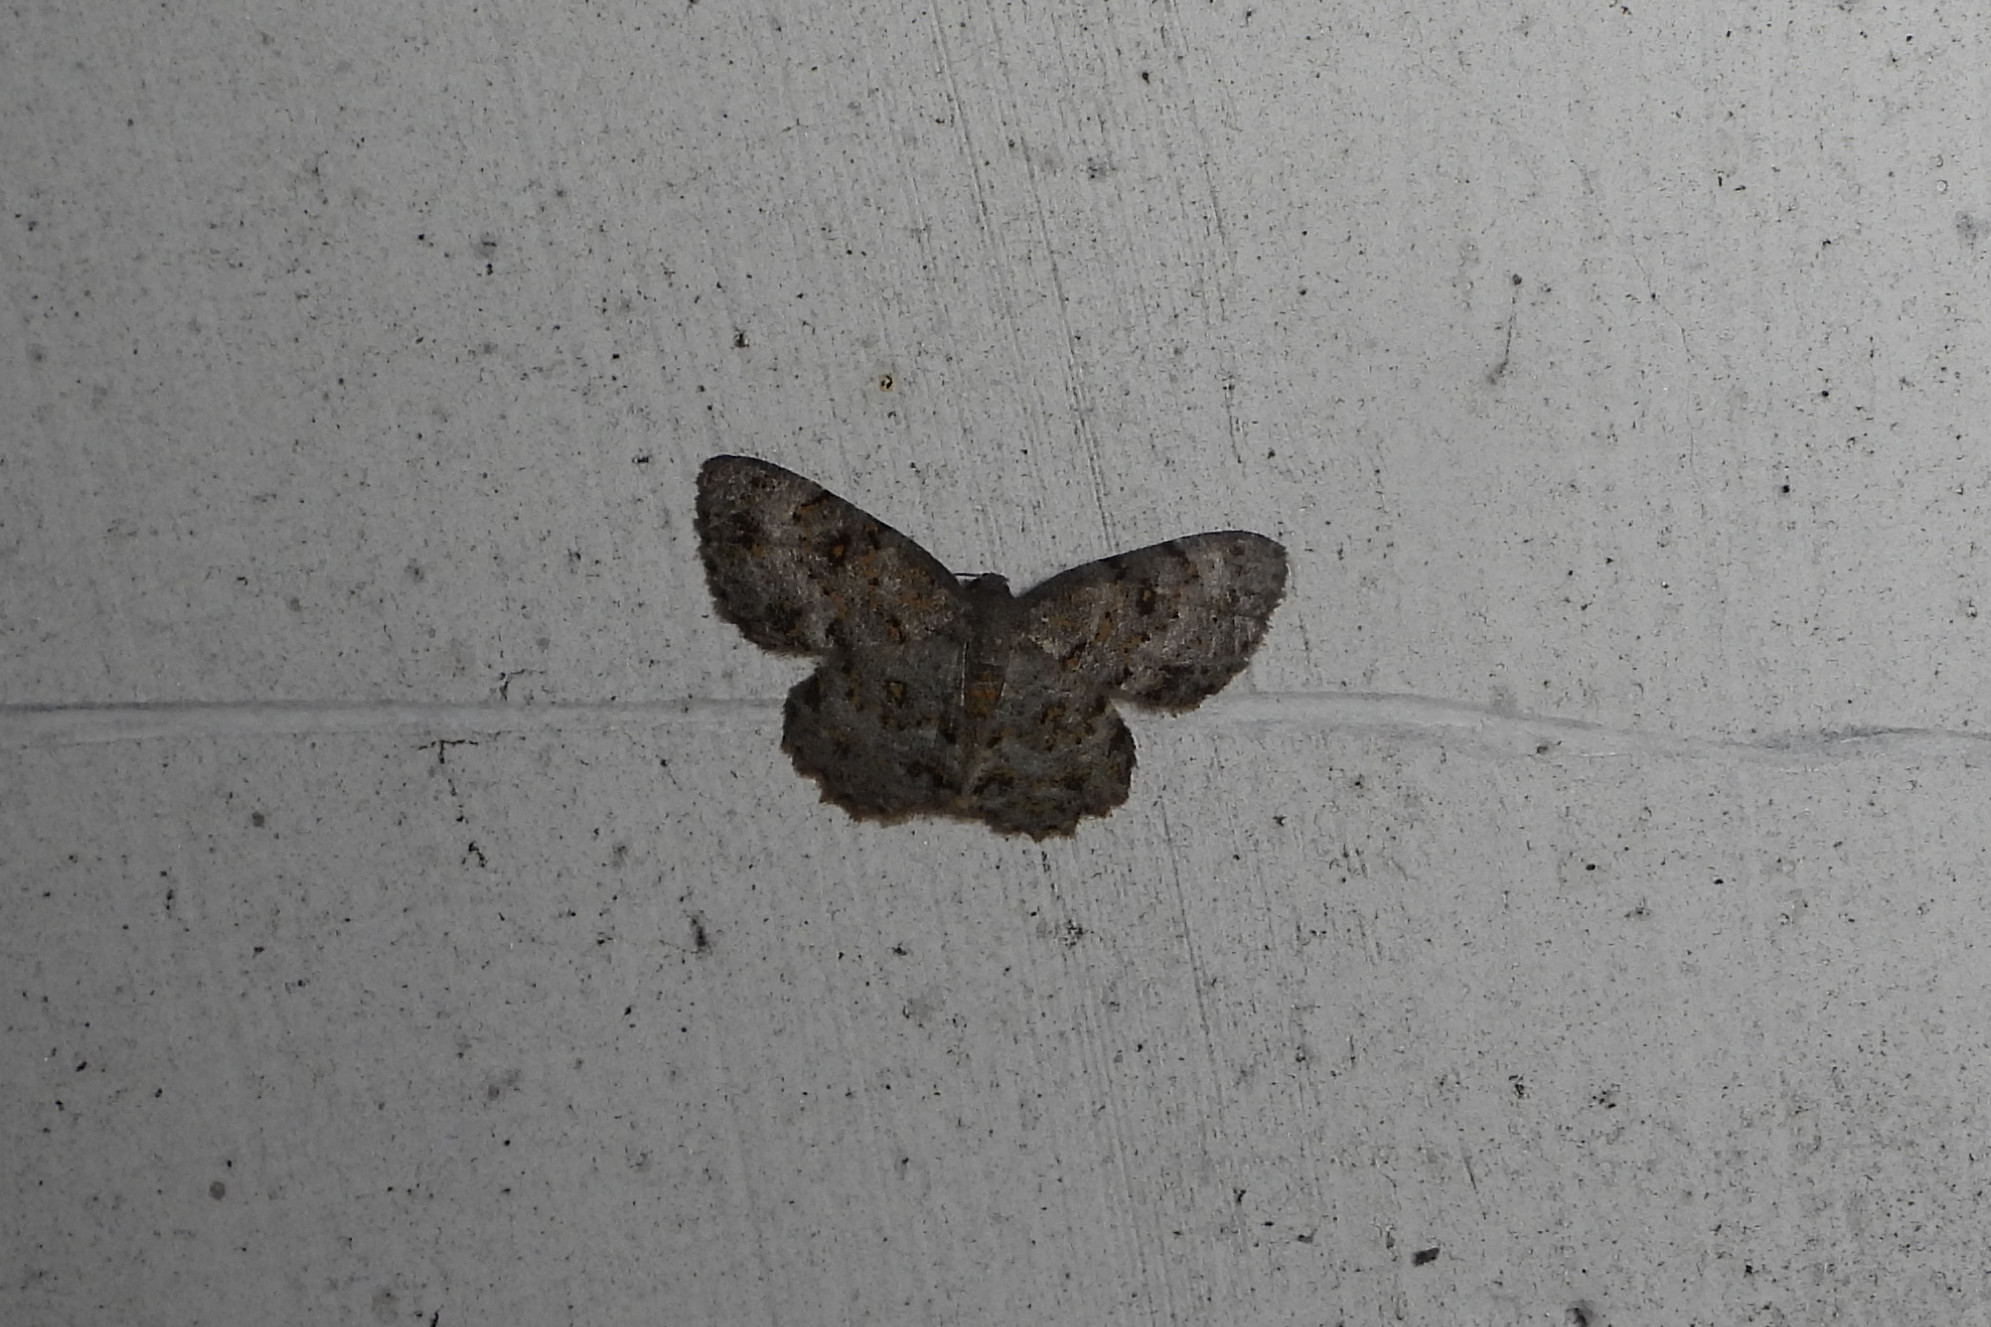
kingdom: Animalia
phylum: Arthropoda
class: Insecta
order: Lepidoptera
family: Geometridae
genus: Dischidesia
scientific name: Dischidesia cinerea
